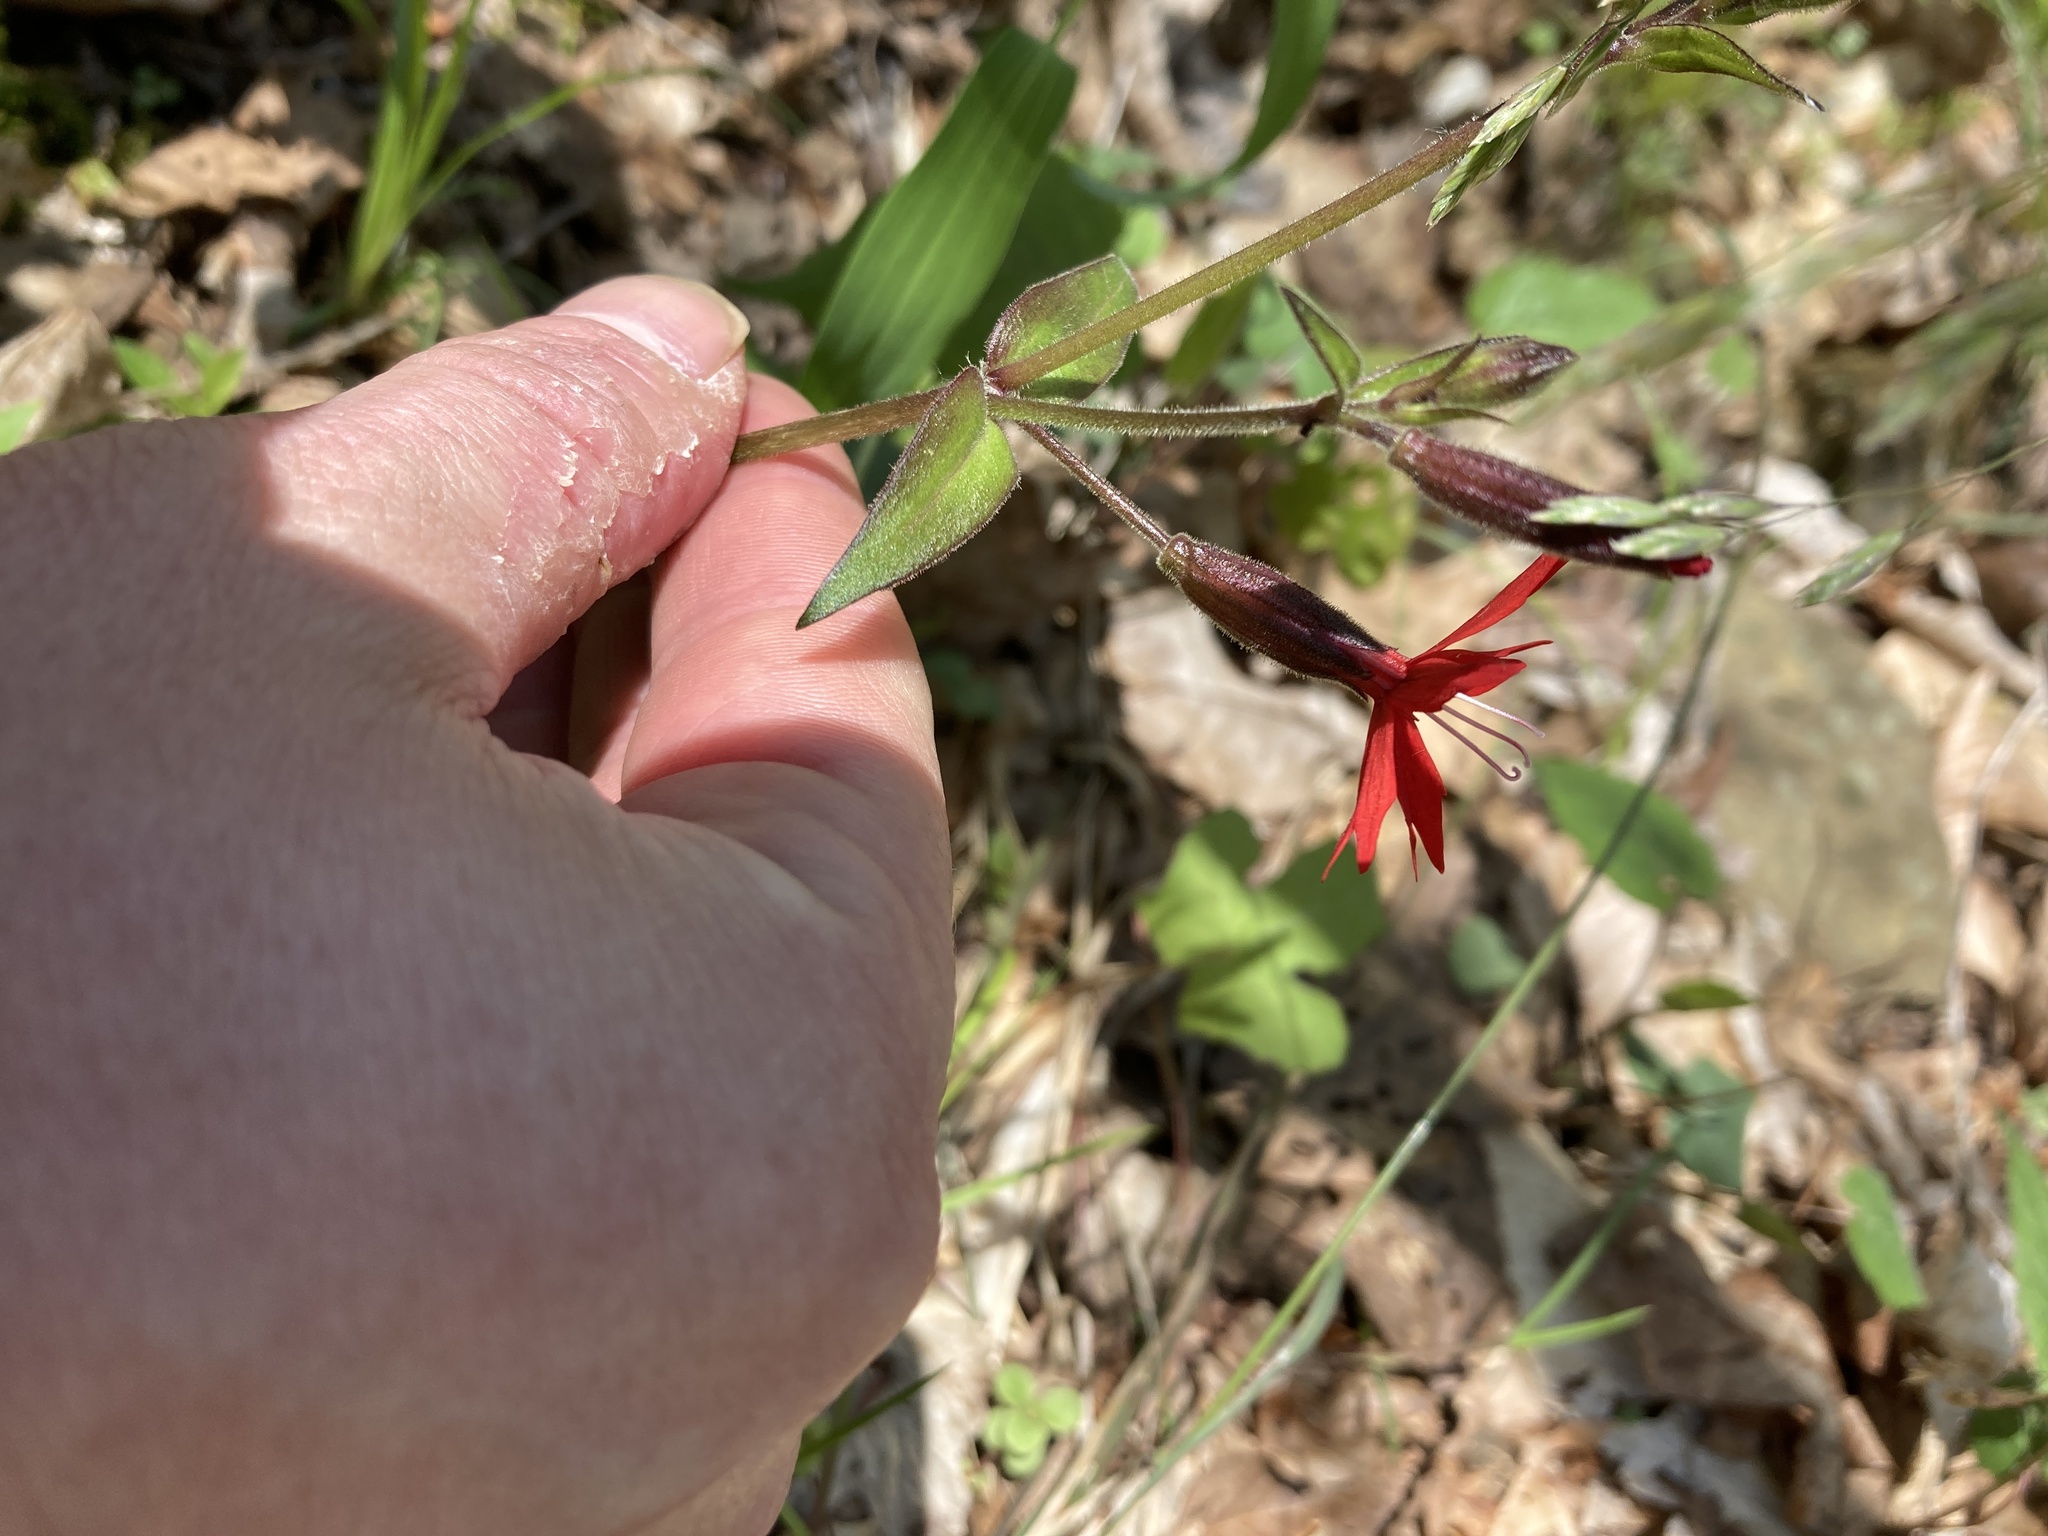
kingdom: Plantae
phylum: Tracheophyta
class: Magnoliopsida
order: Caryophyllales
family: Caryophyllaceae
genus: Silene
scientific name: Silene virginica
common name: Fire-pink
